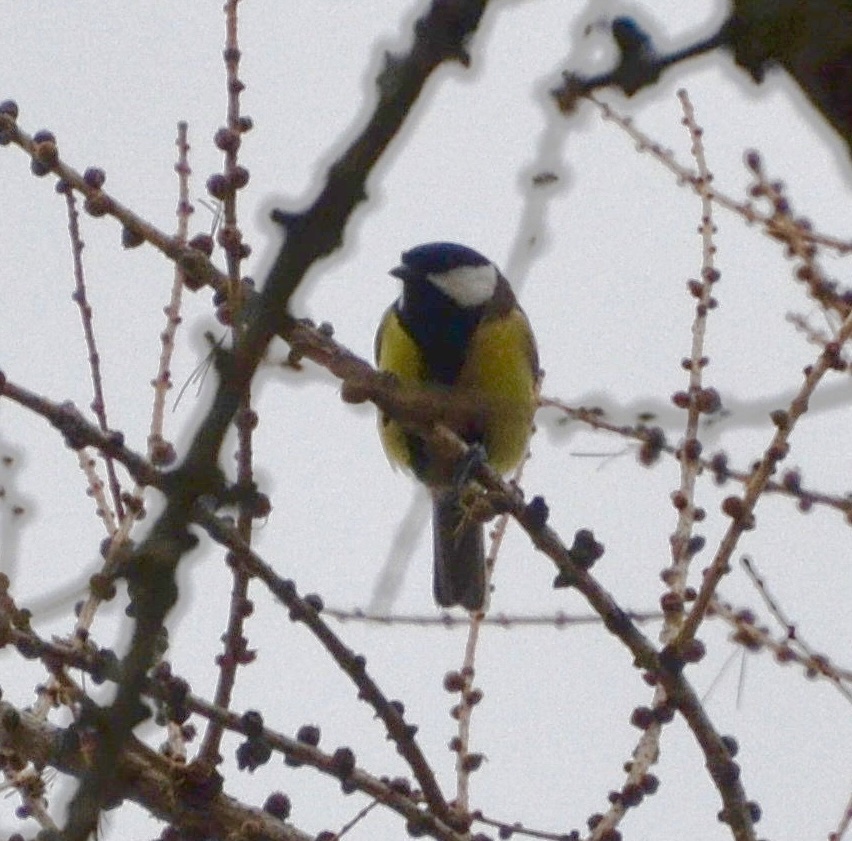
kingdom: Animalia
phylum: Chordata
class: Aves
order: Passeriformes
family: Paridae
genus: Parus
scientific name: Parus major
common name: Great tit
